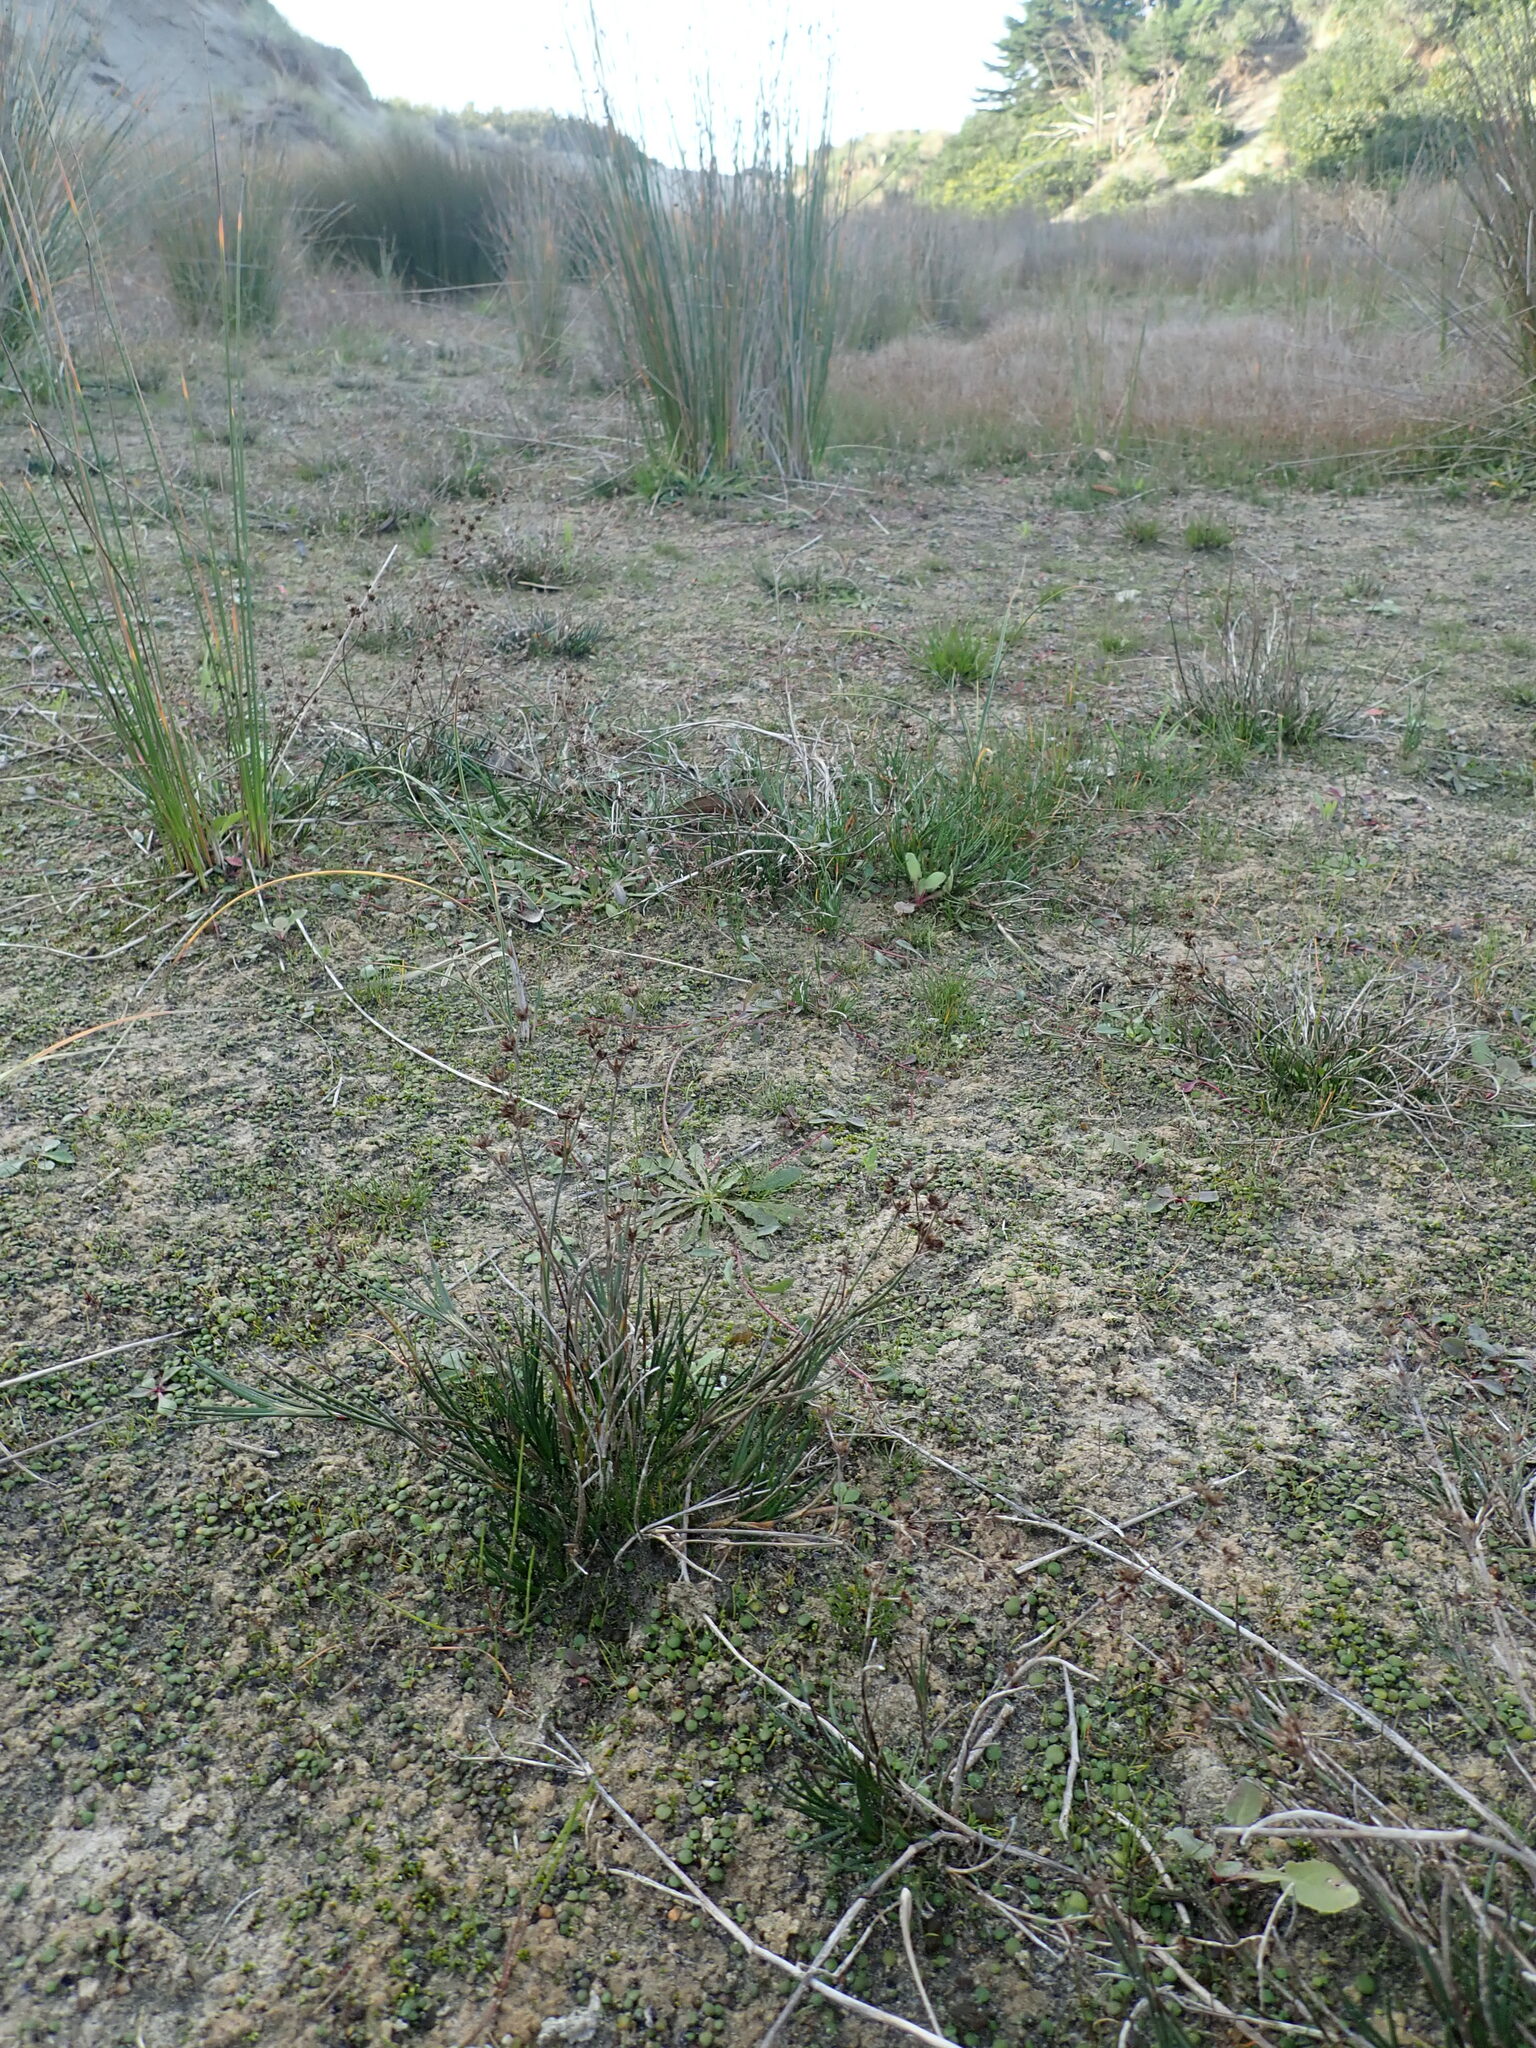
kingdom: Plantae
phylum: Tracheophyta
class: Liliopsida
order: Poales
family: Juncaceae
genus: Juncus
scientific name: Juncus articulatus
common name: Jointed rush
